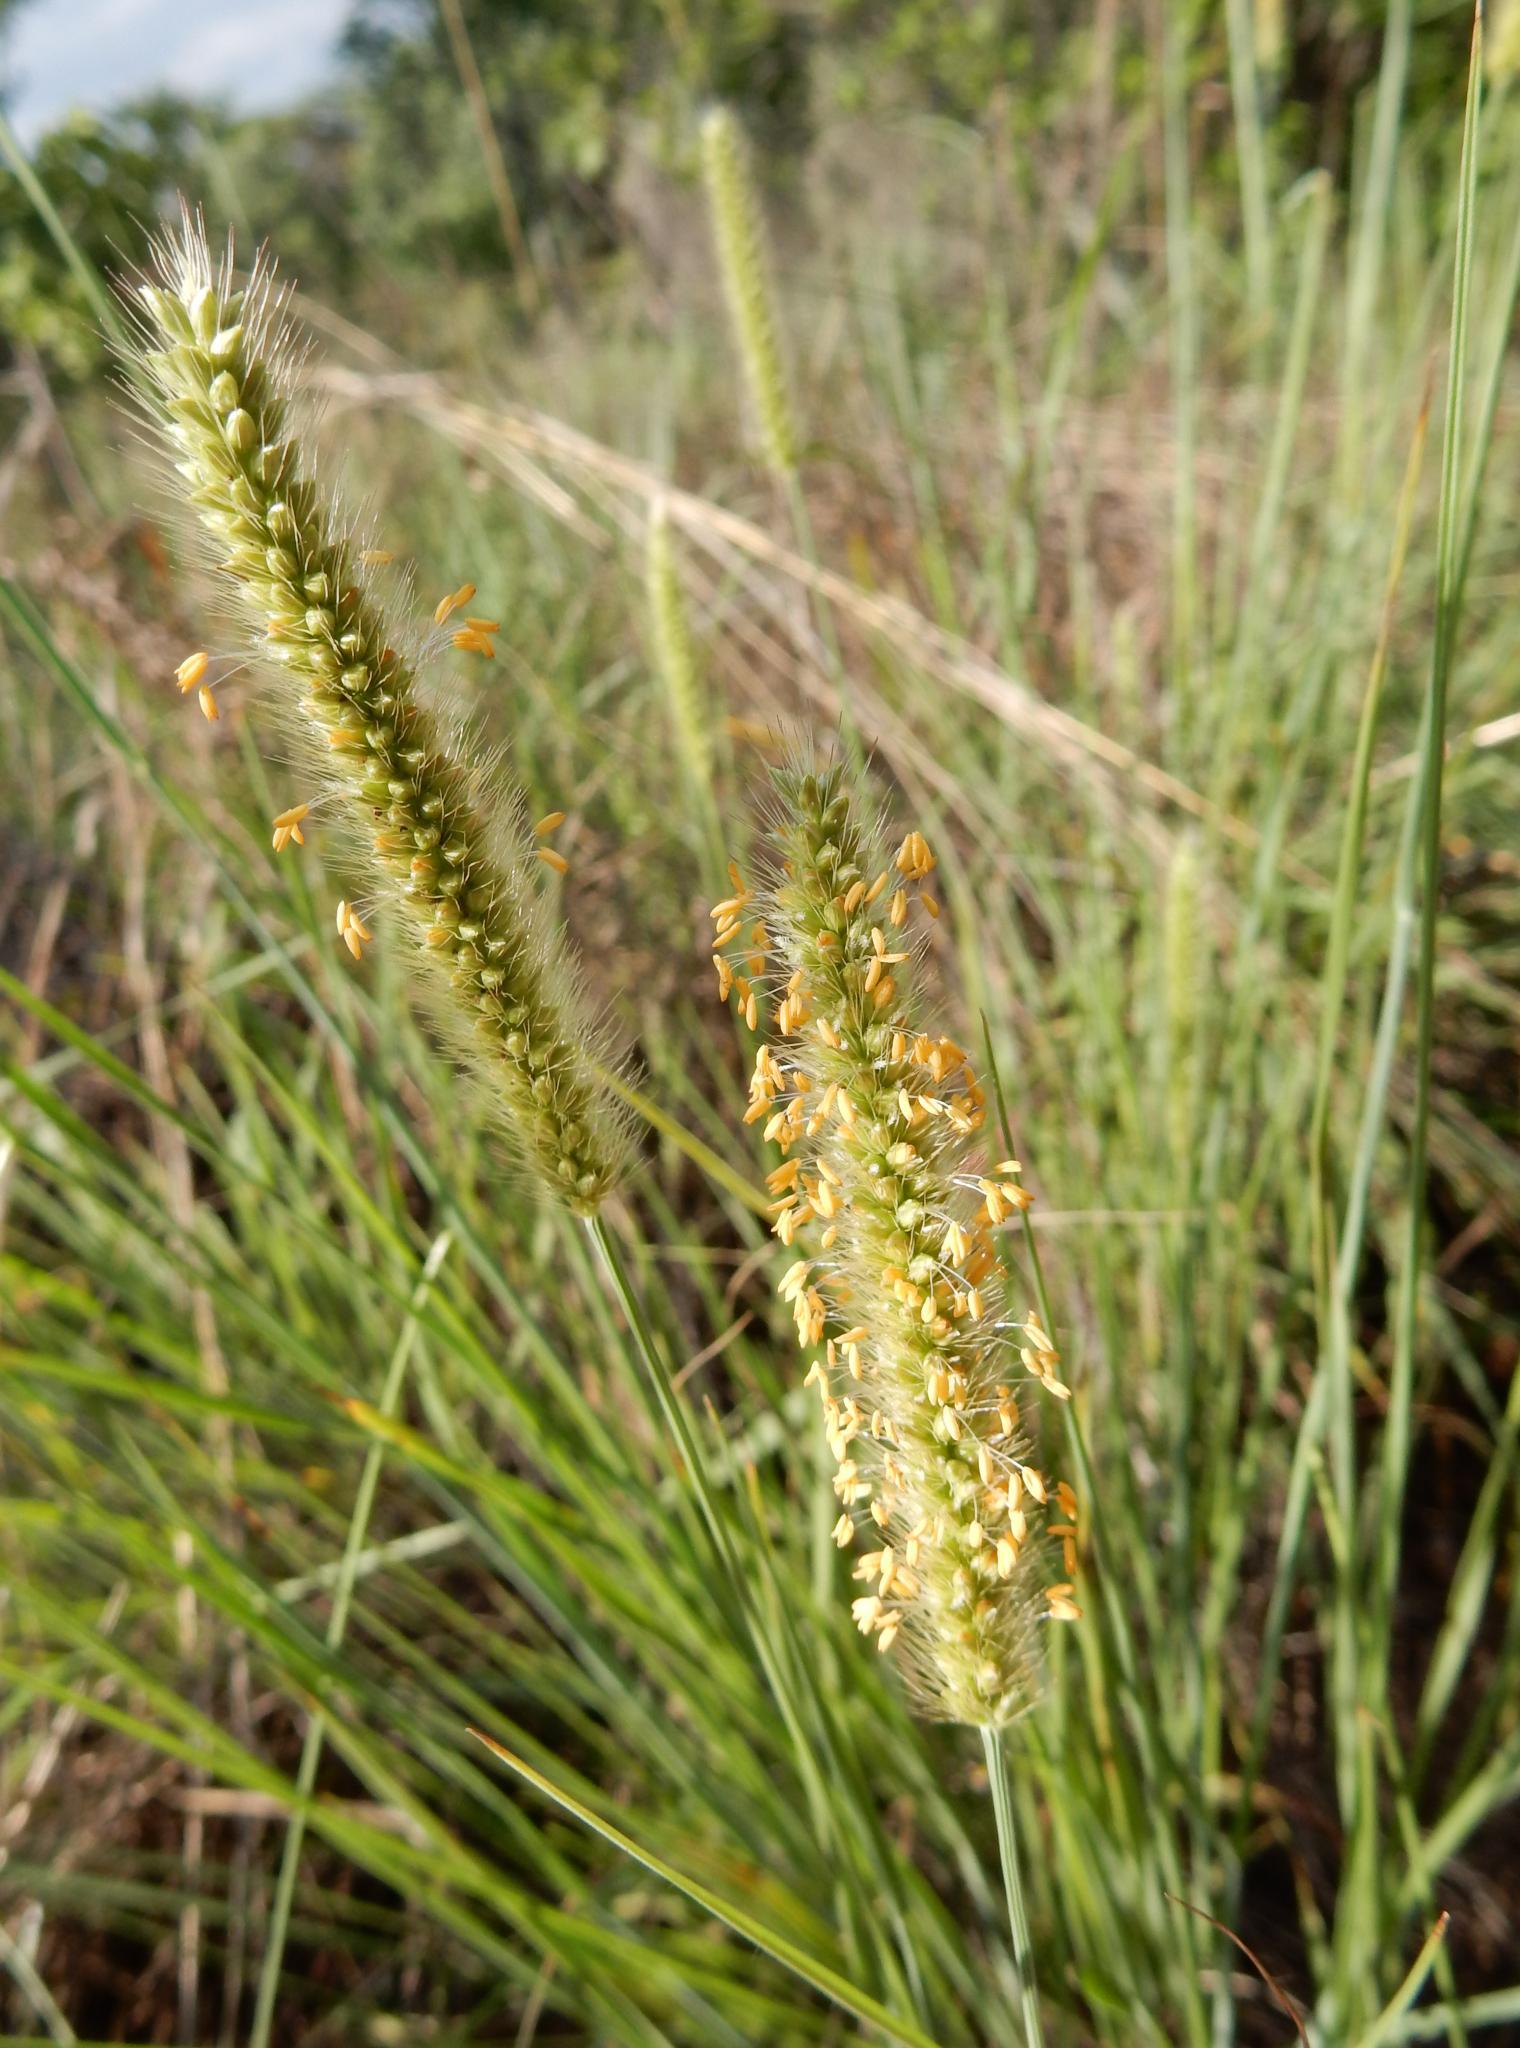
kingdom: Plantae
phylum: Tracheophyta
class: Liliopsida
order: Poales
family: Poaceae
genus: Setaria
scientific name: Setaria sphacelata
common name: African bristlegrass
